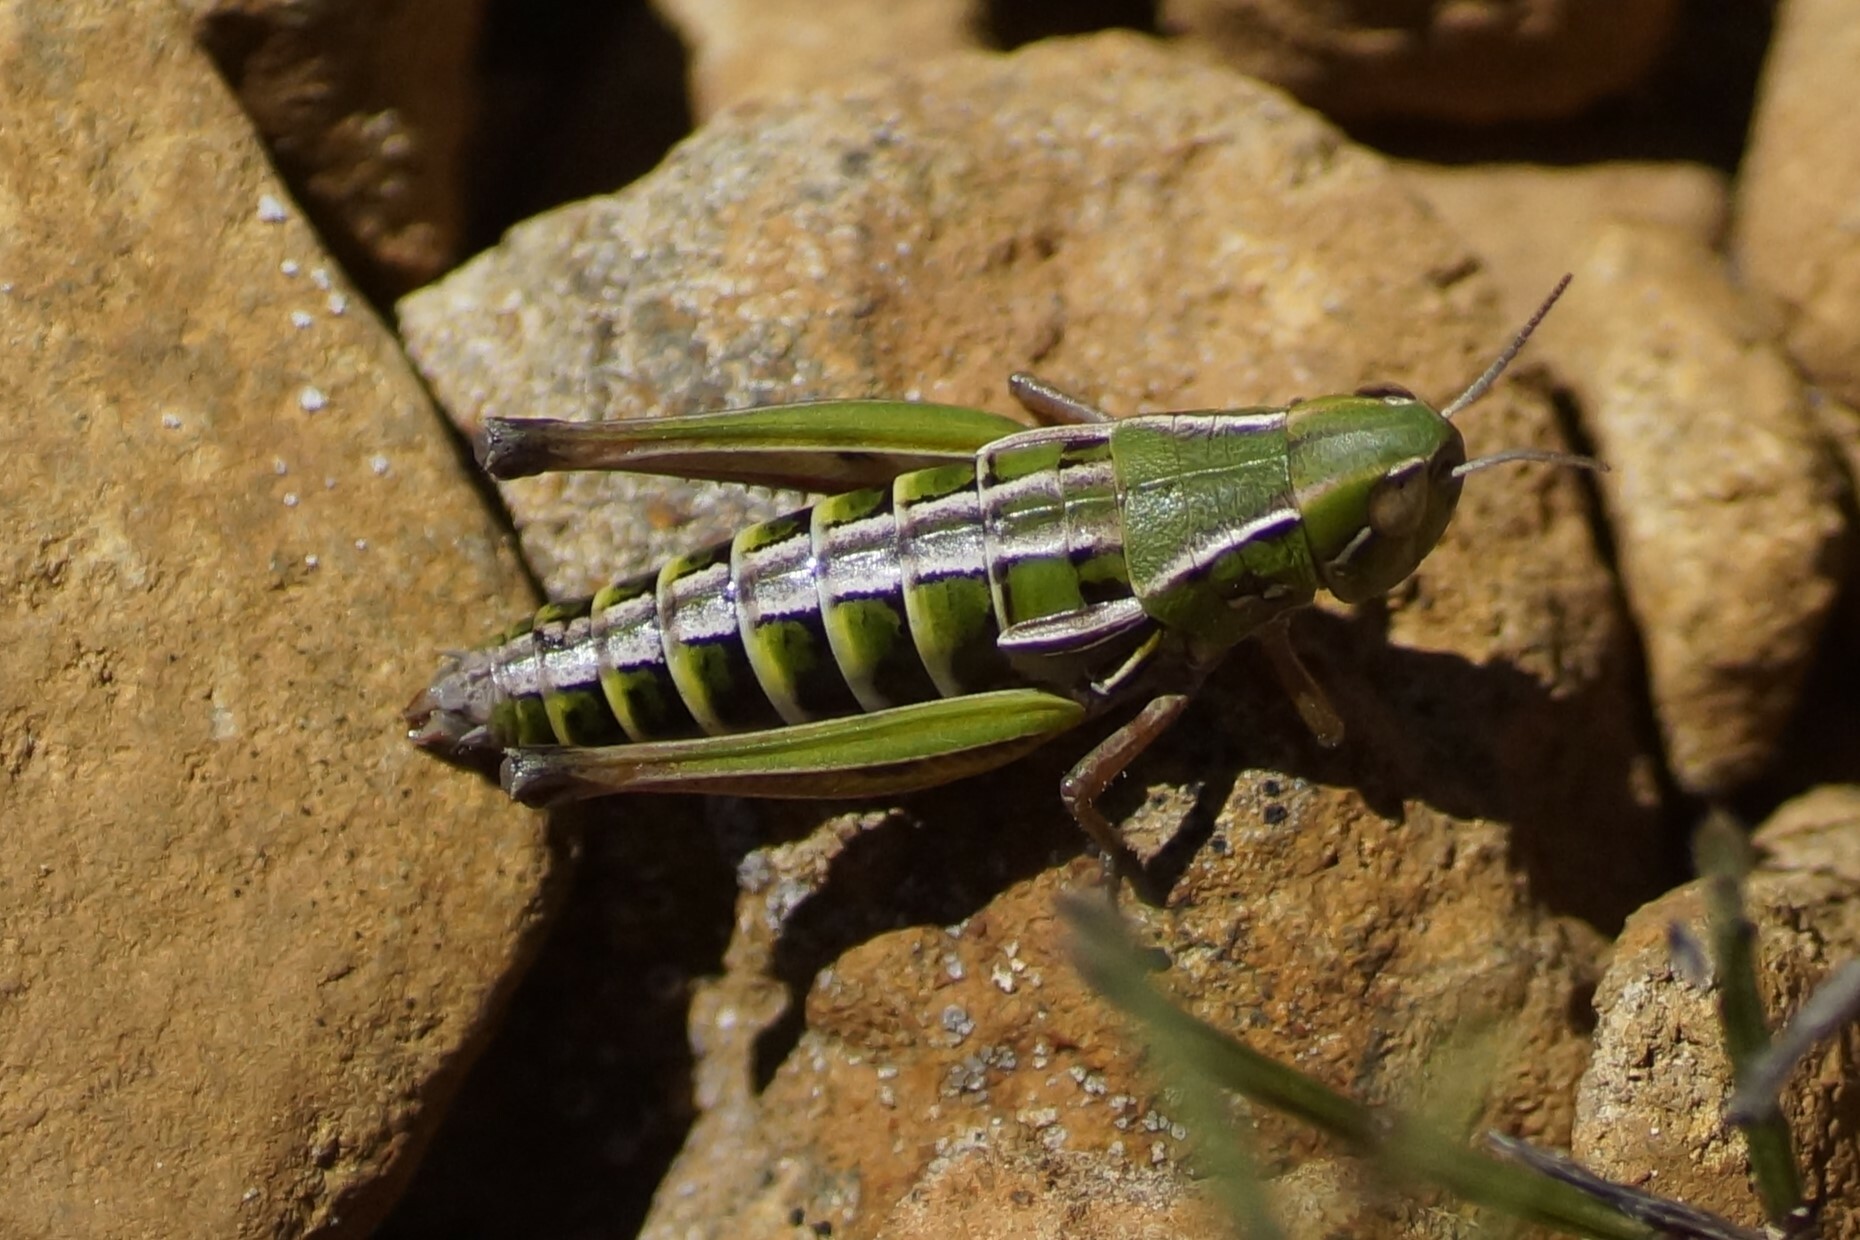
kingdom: Animalia
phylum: Arthropoda
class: Insecta
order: Orthoptera
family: Acrididae
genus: Kosciuscola
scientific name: Kosciuscola tasmanicus
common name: Tasmanian skyhopper
